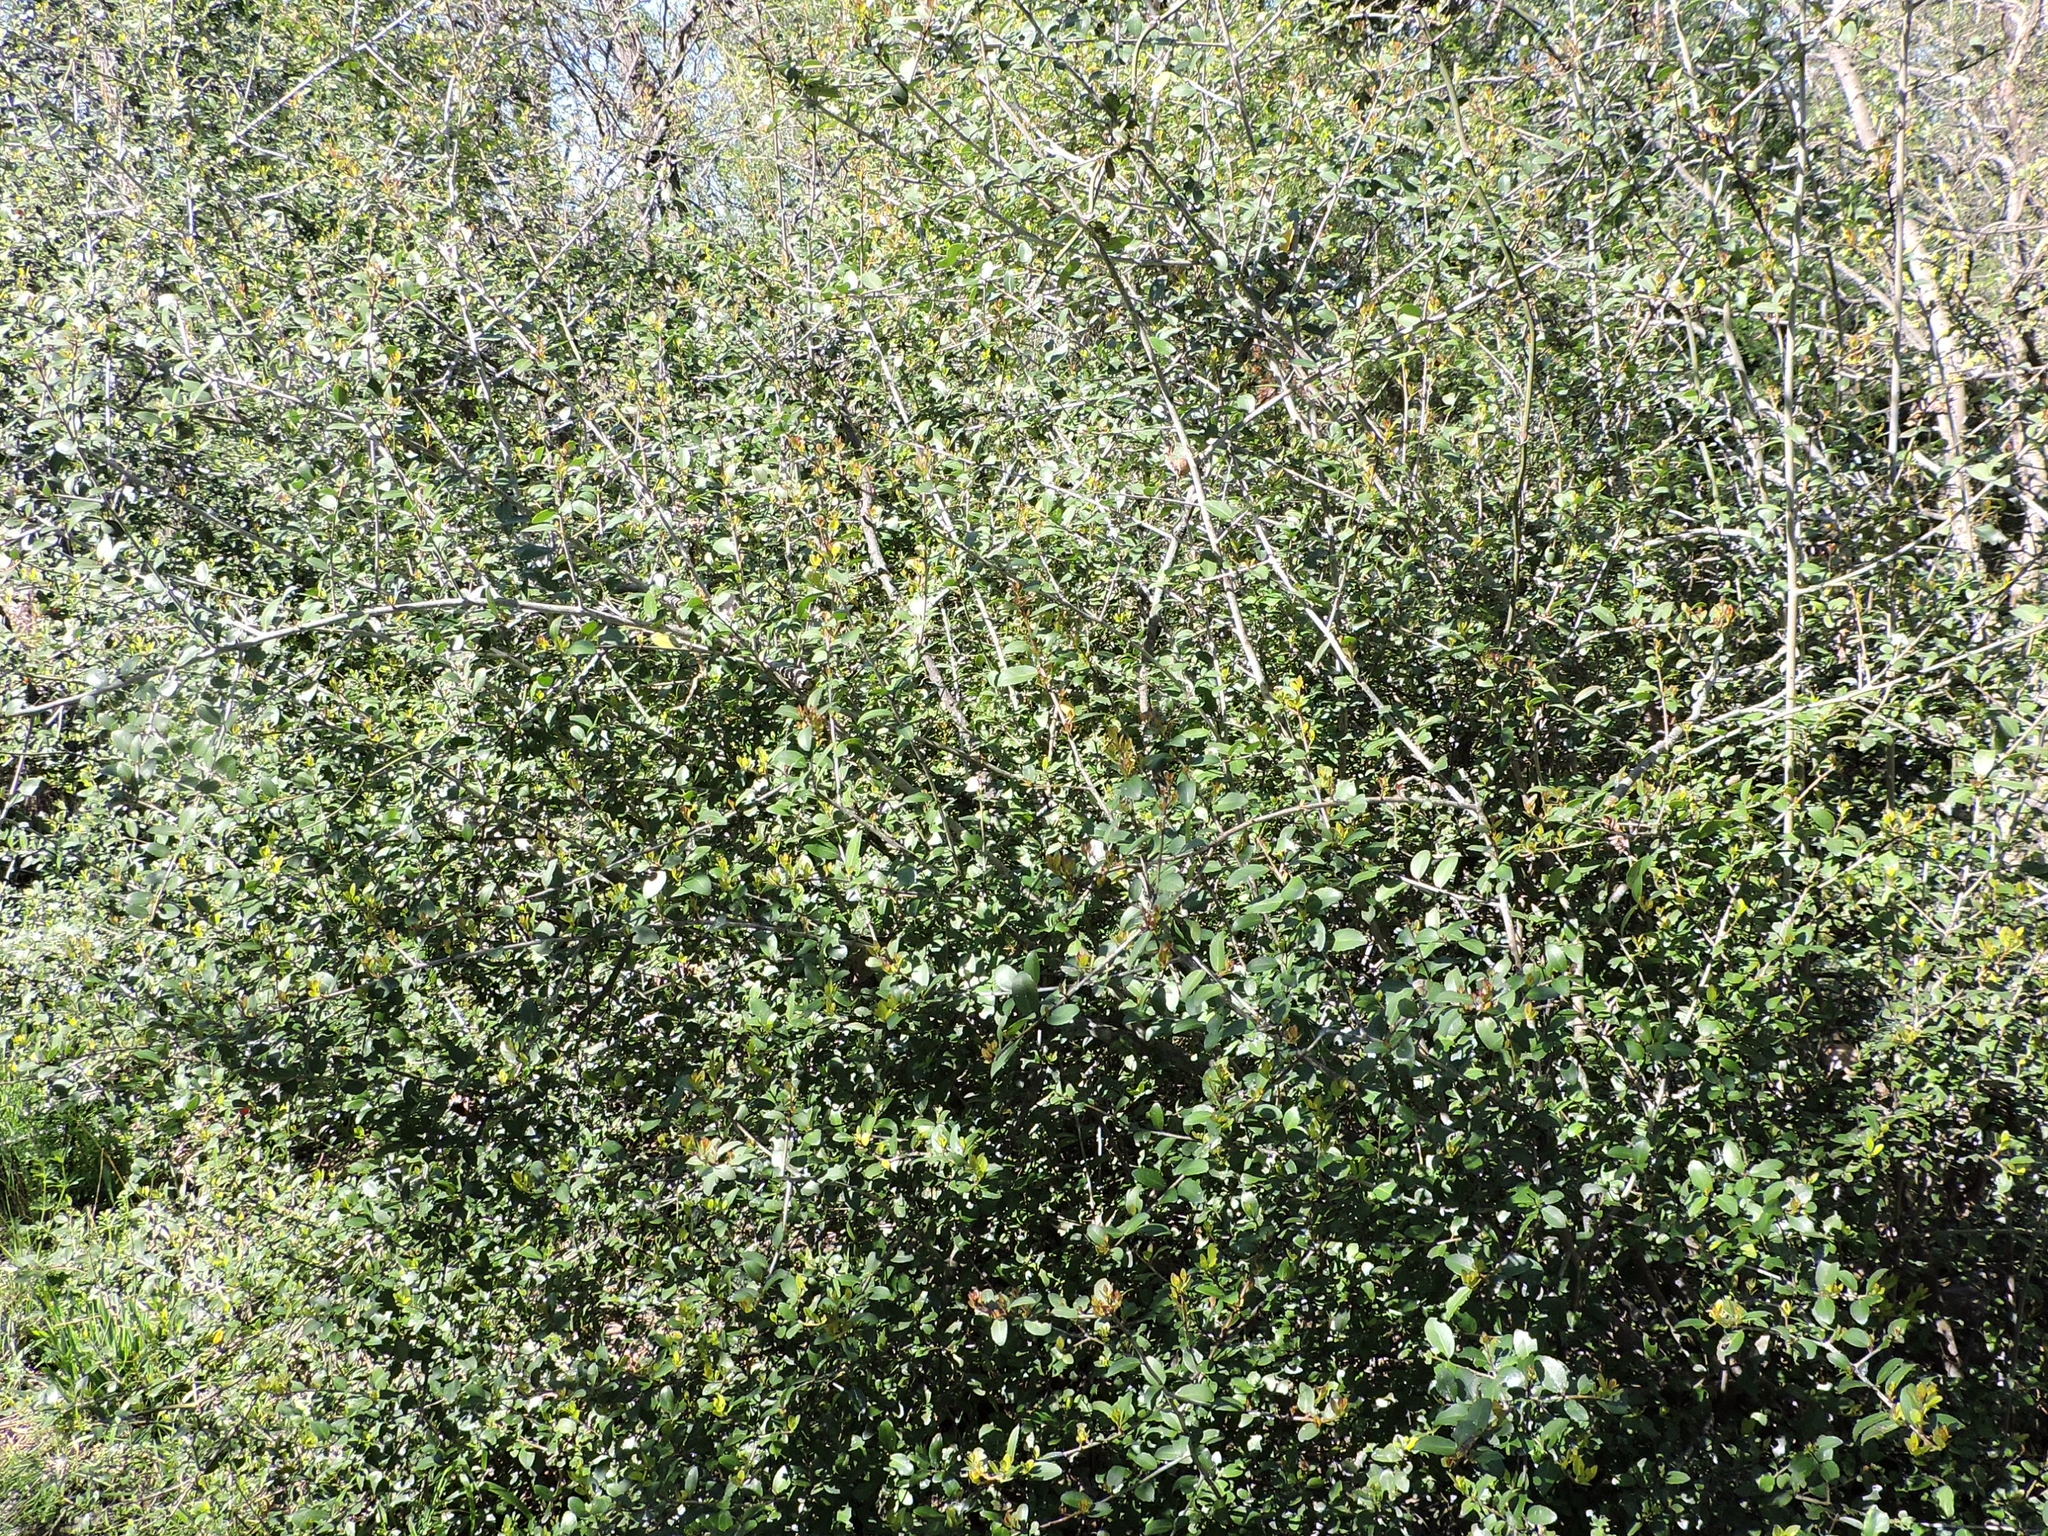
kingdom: Plantae
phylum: Tracheophyta
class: Magnoliopsida
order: Aquifoliales
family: Aquifoliaceae
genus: Ilex
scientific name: Ilex vomitoria
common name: Yaupon holly
